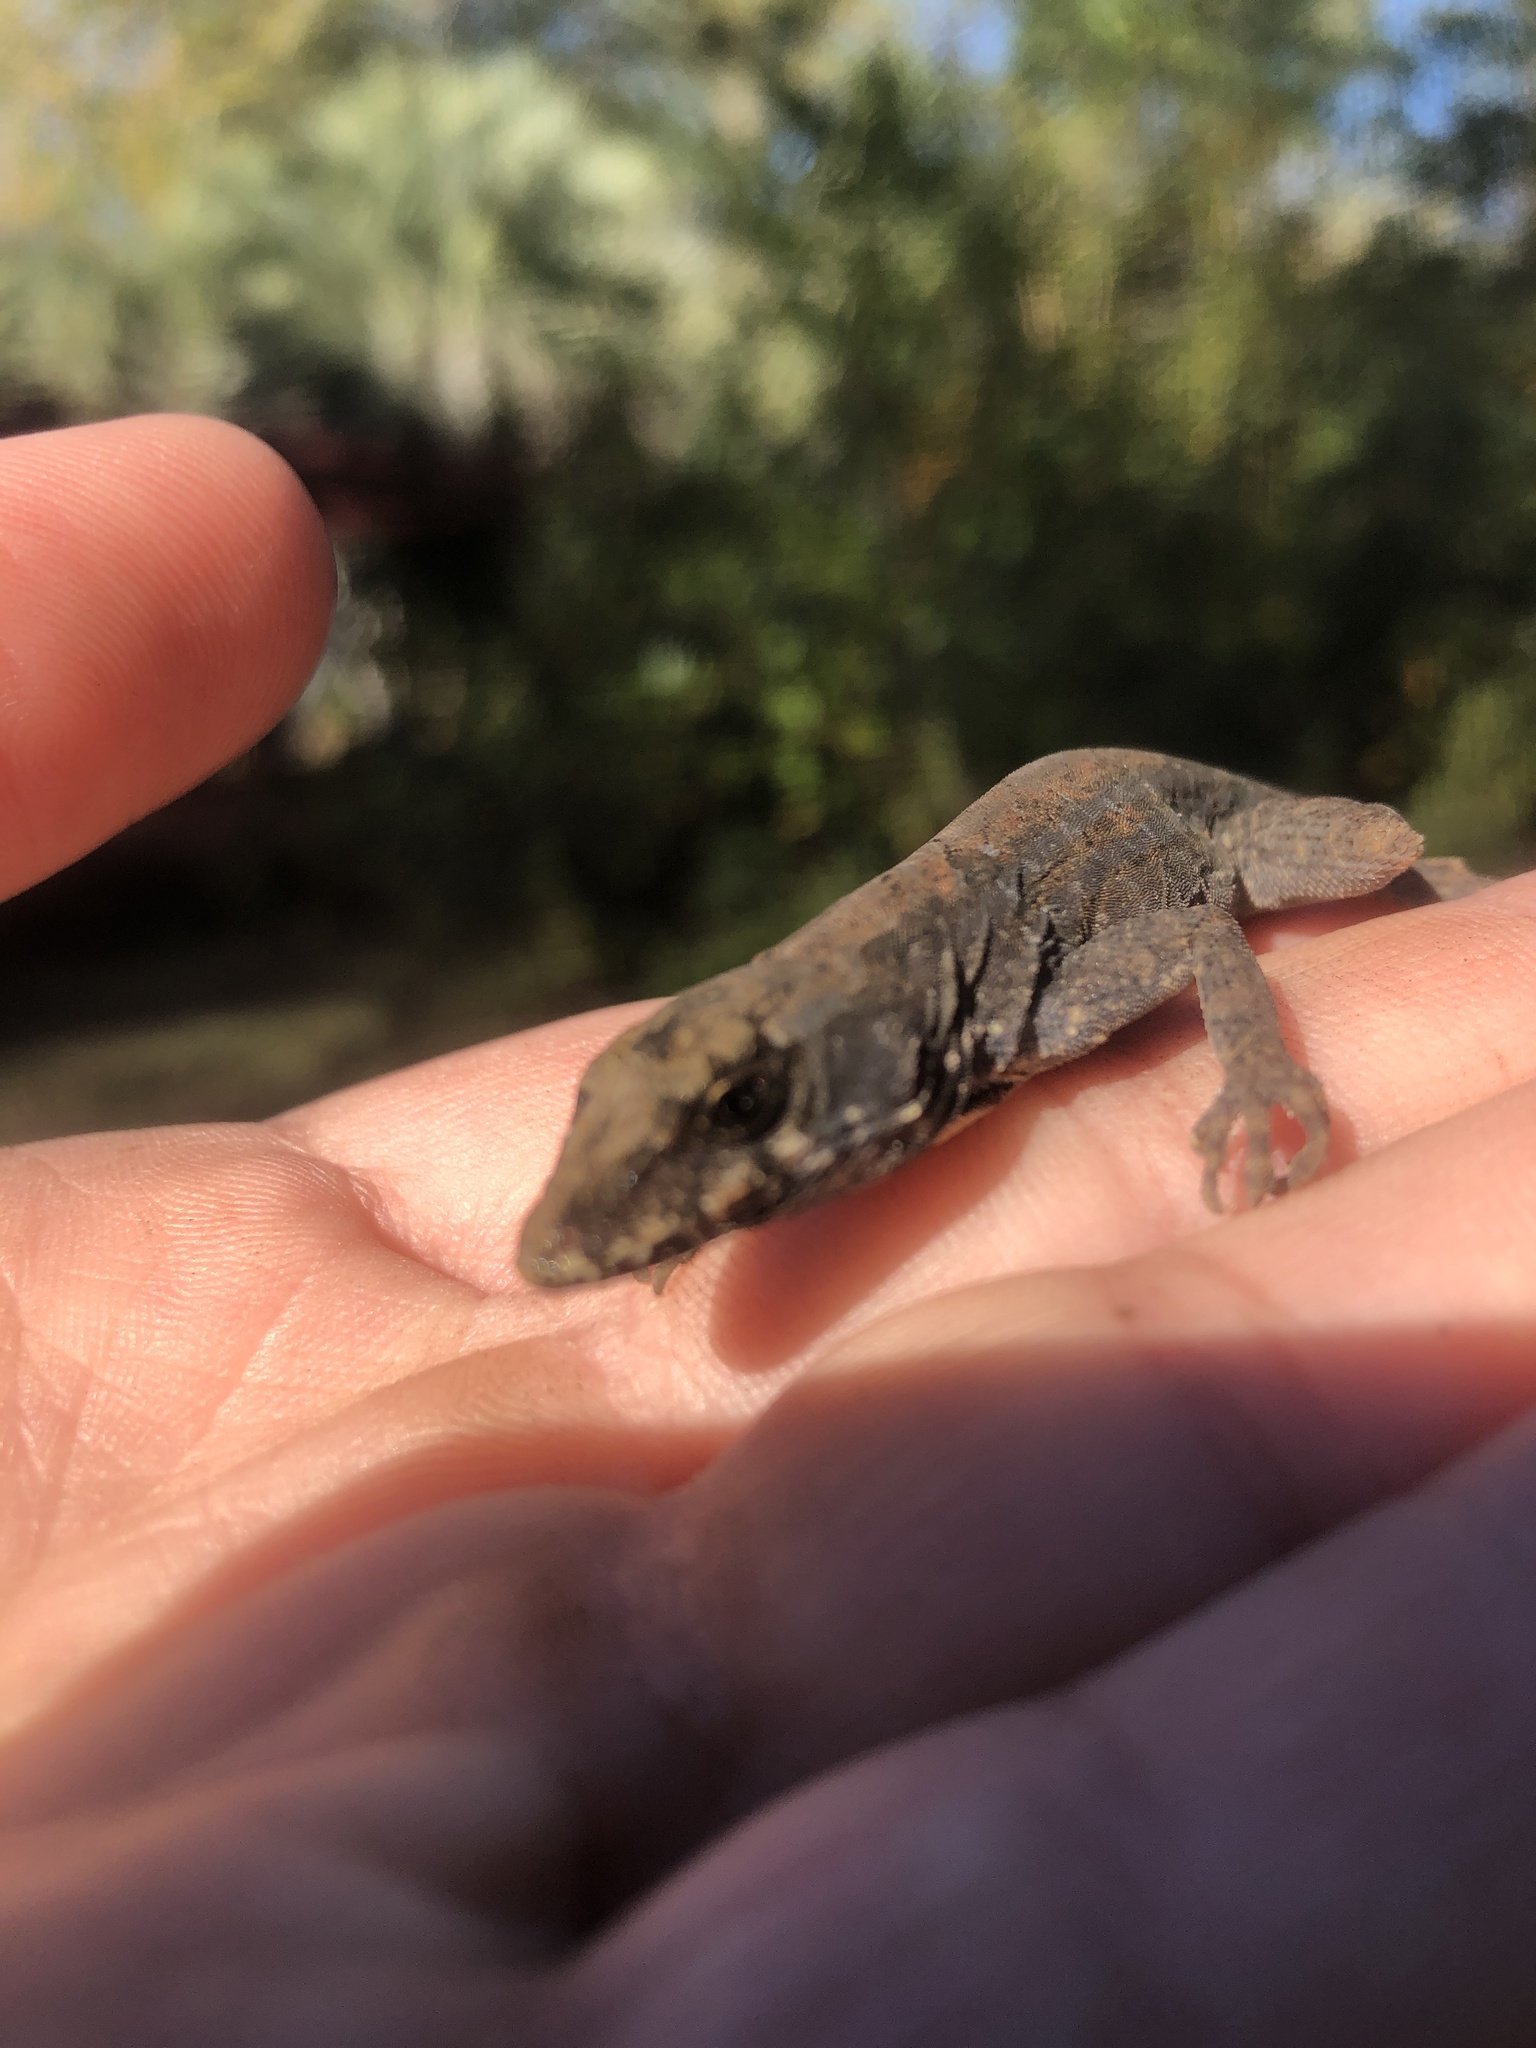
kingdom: Animalia
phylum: Chordata
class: Squamata
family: Dactyloidae
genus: Anolis
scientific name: Anolis sagrei
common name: Brown anole
